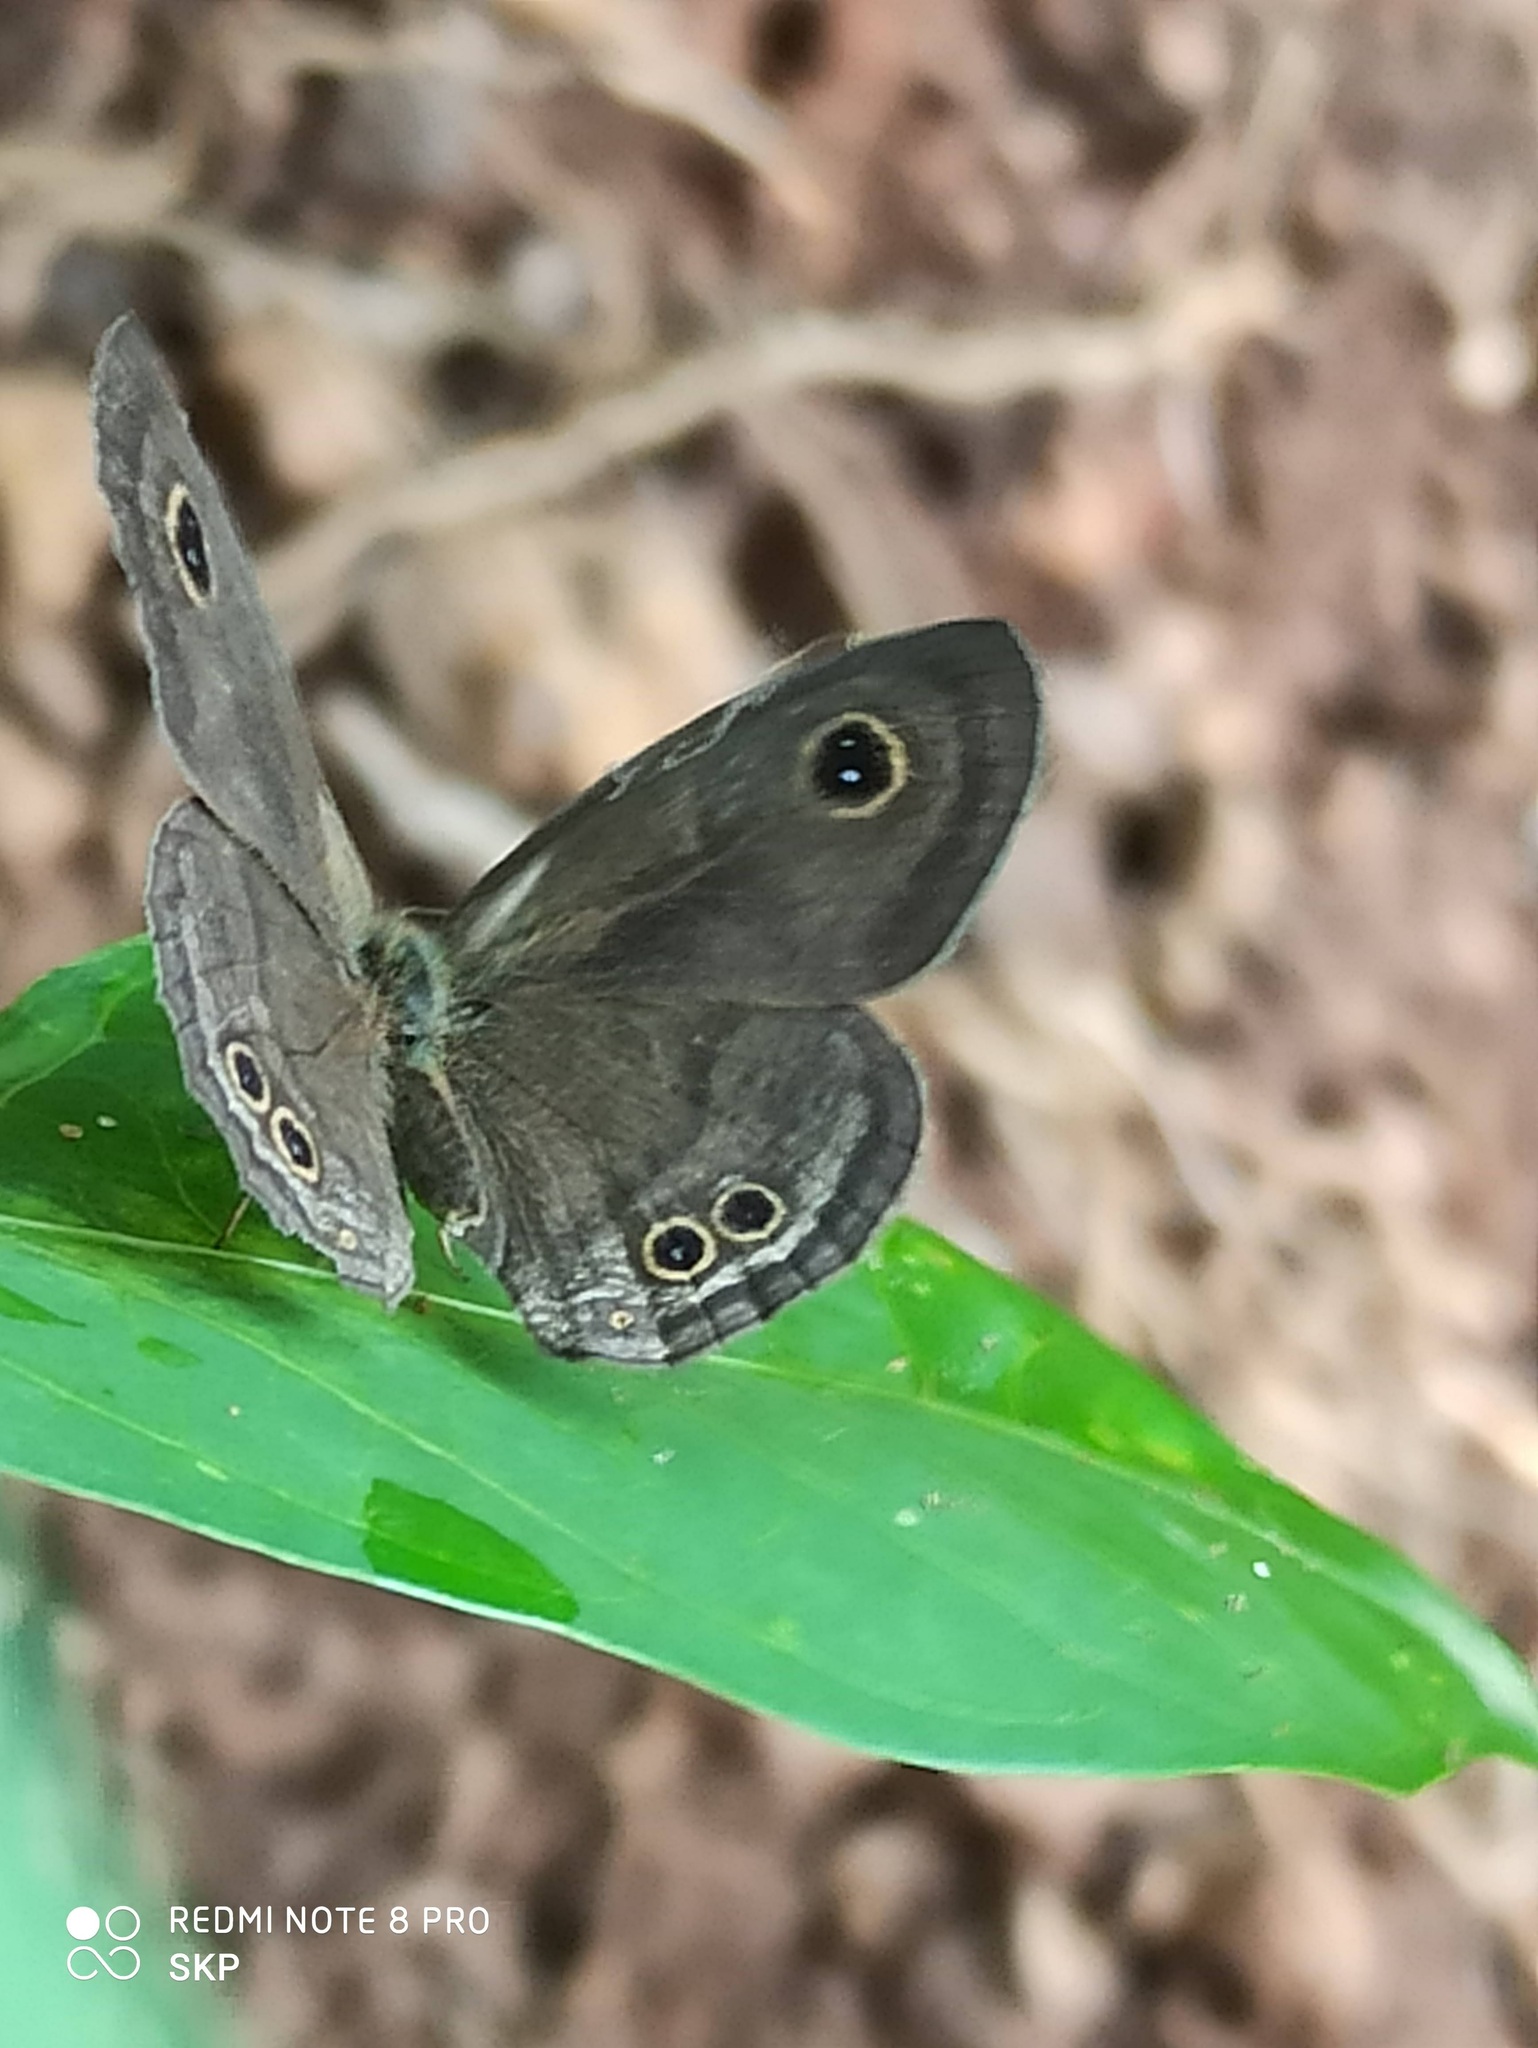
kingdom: Animalia
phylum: Arthropoda
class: Insecta
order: Lepidoptera
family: Nymphalidae
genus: Ypthima
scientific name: Ypthima baldus
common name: Common five-ring
